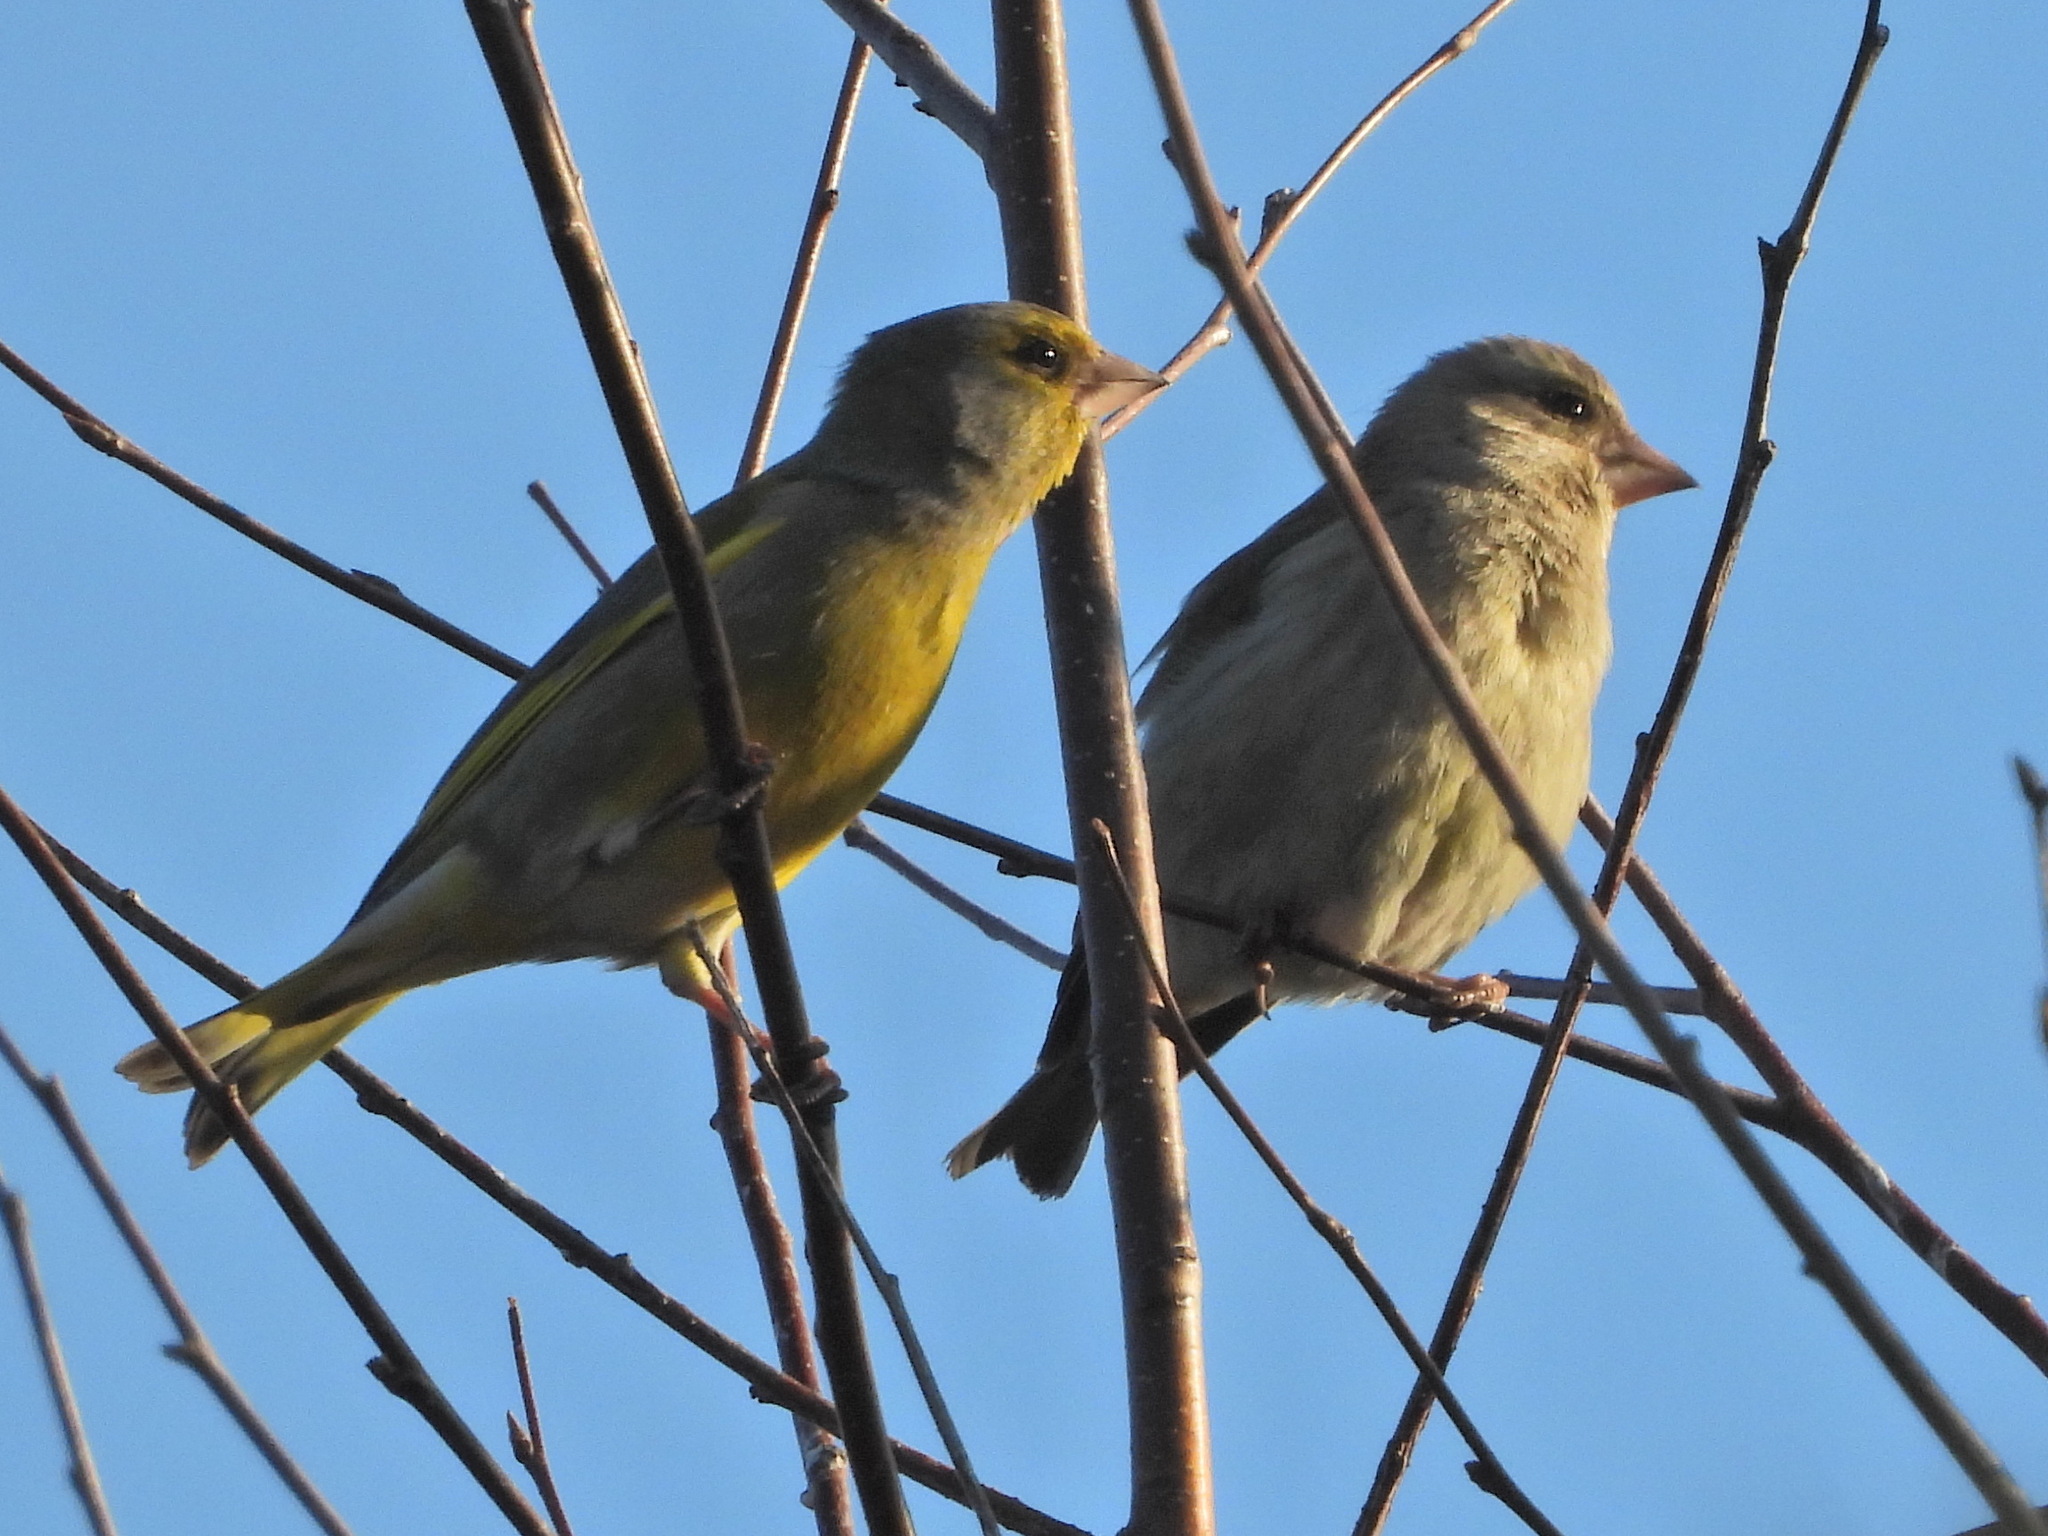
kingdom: Plantae
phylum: Tracheophyta
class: Liliopsida
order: Poales
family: Poaceae
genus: Chloris
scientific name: Chloris chloris
